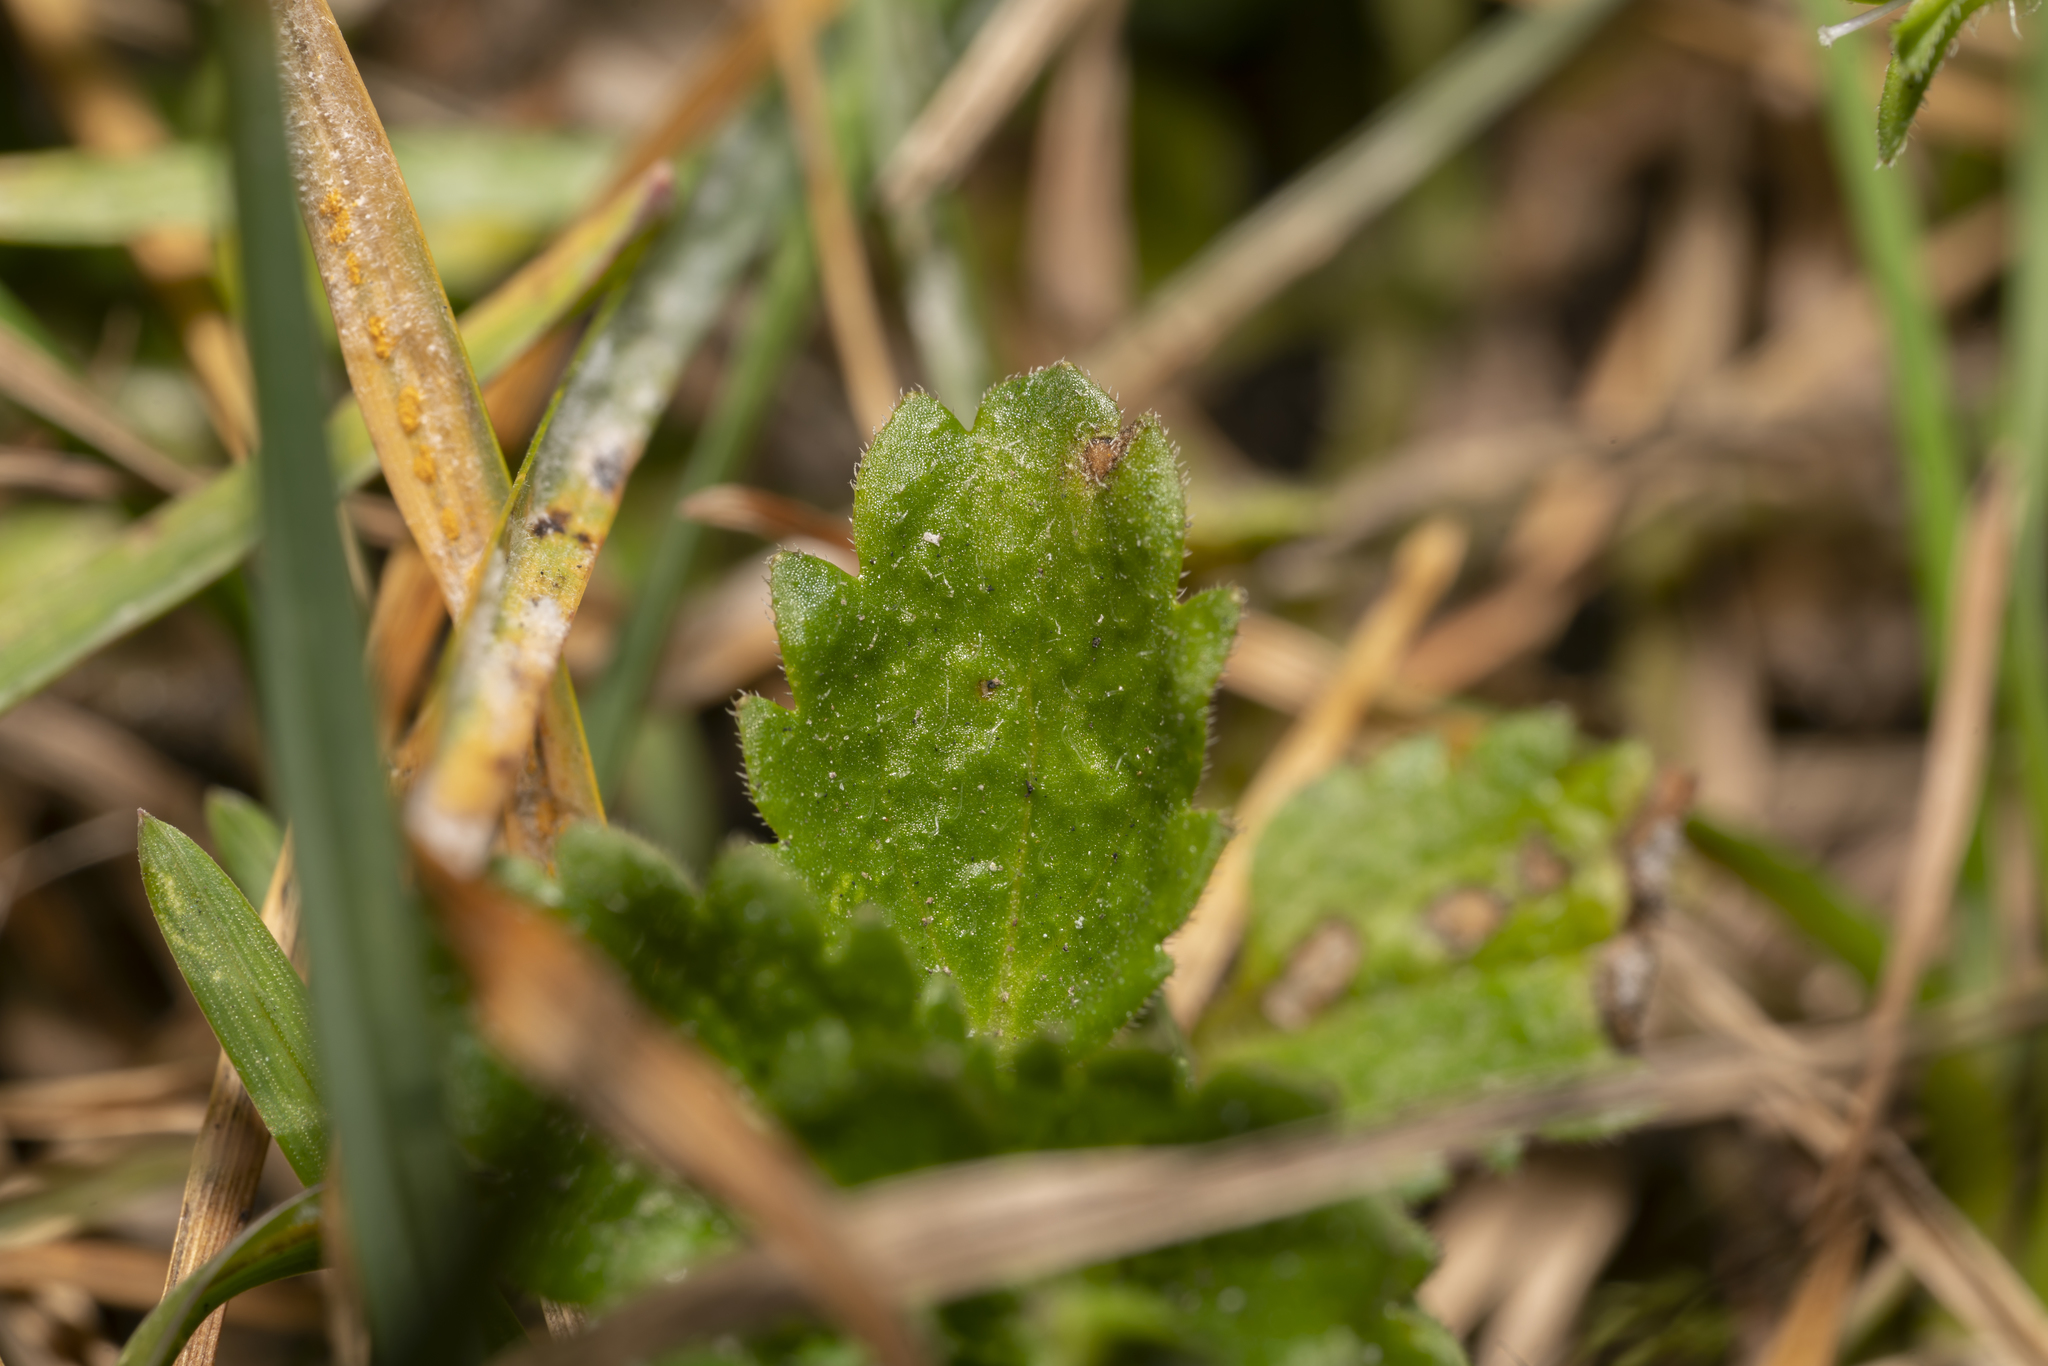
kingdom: Plantae
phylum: Tracheophyta
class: Magnoliopsida
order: Lamiales
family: Plantaginaceae
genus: Veronica
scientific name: Veronica persica
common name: Common field-speedwell
